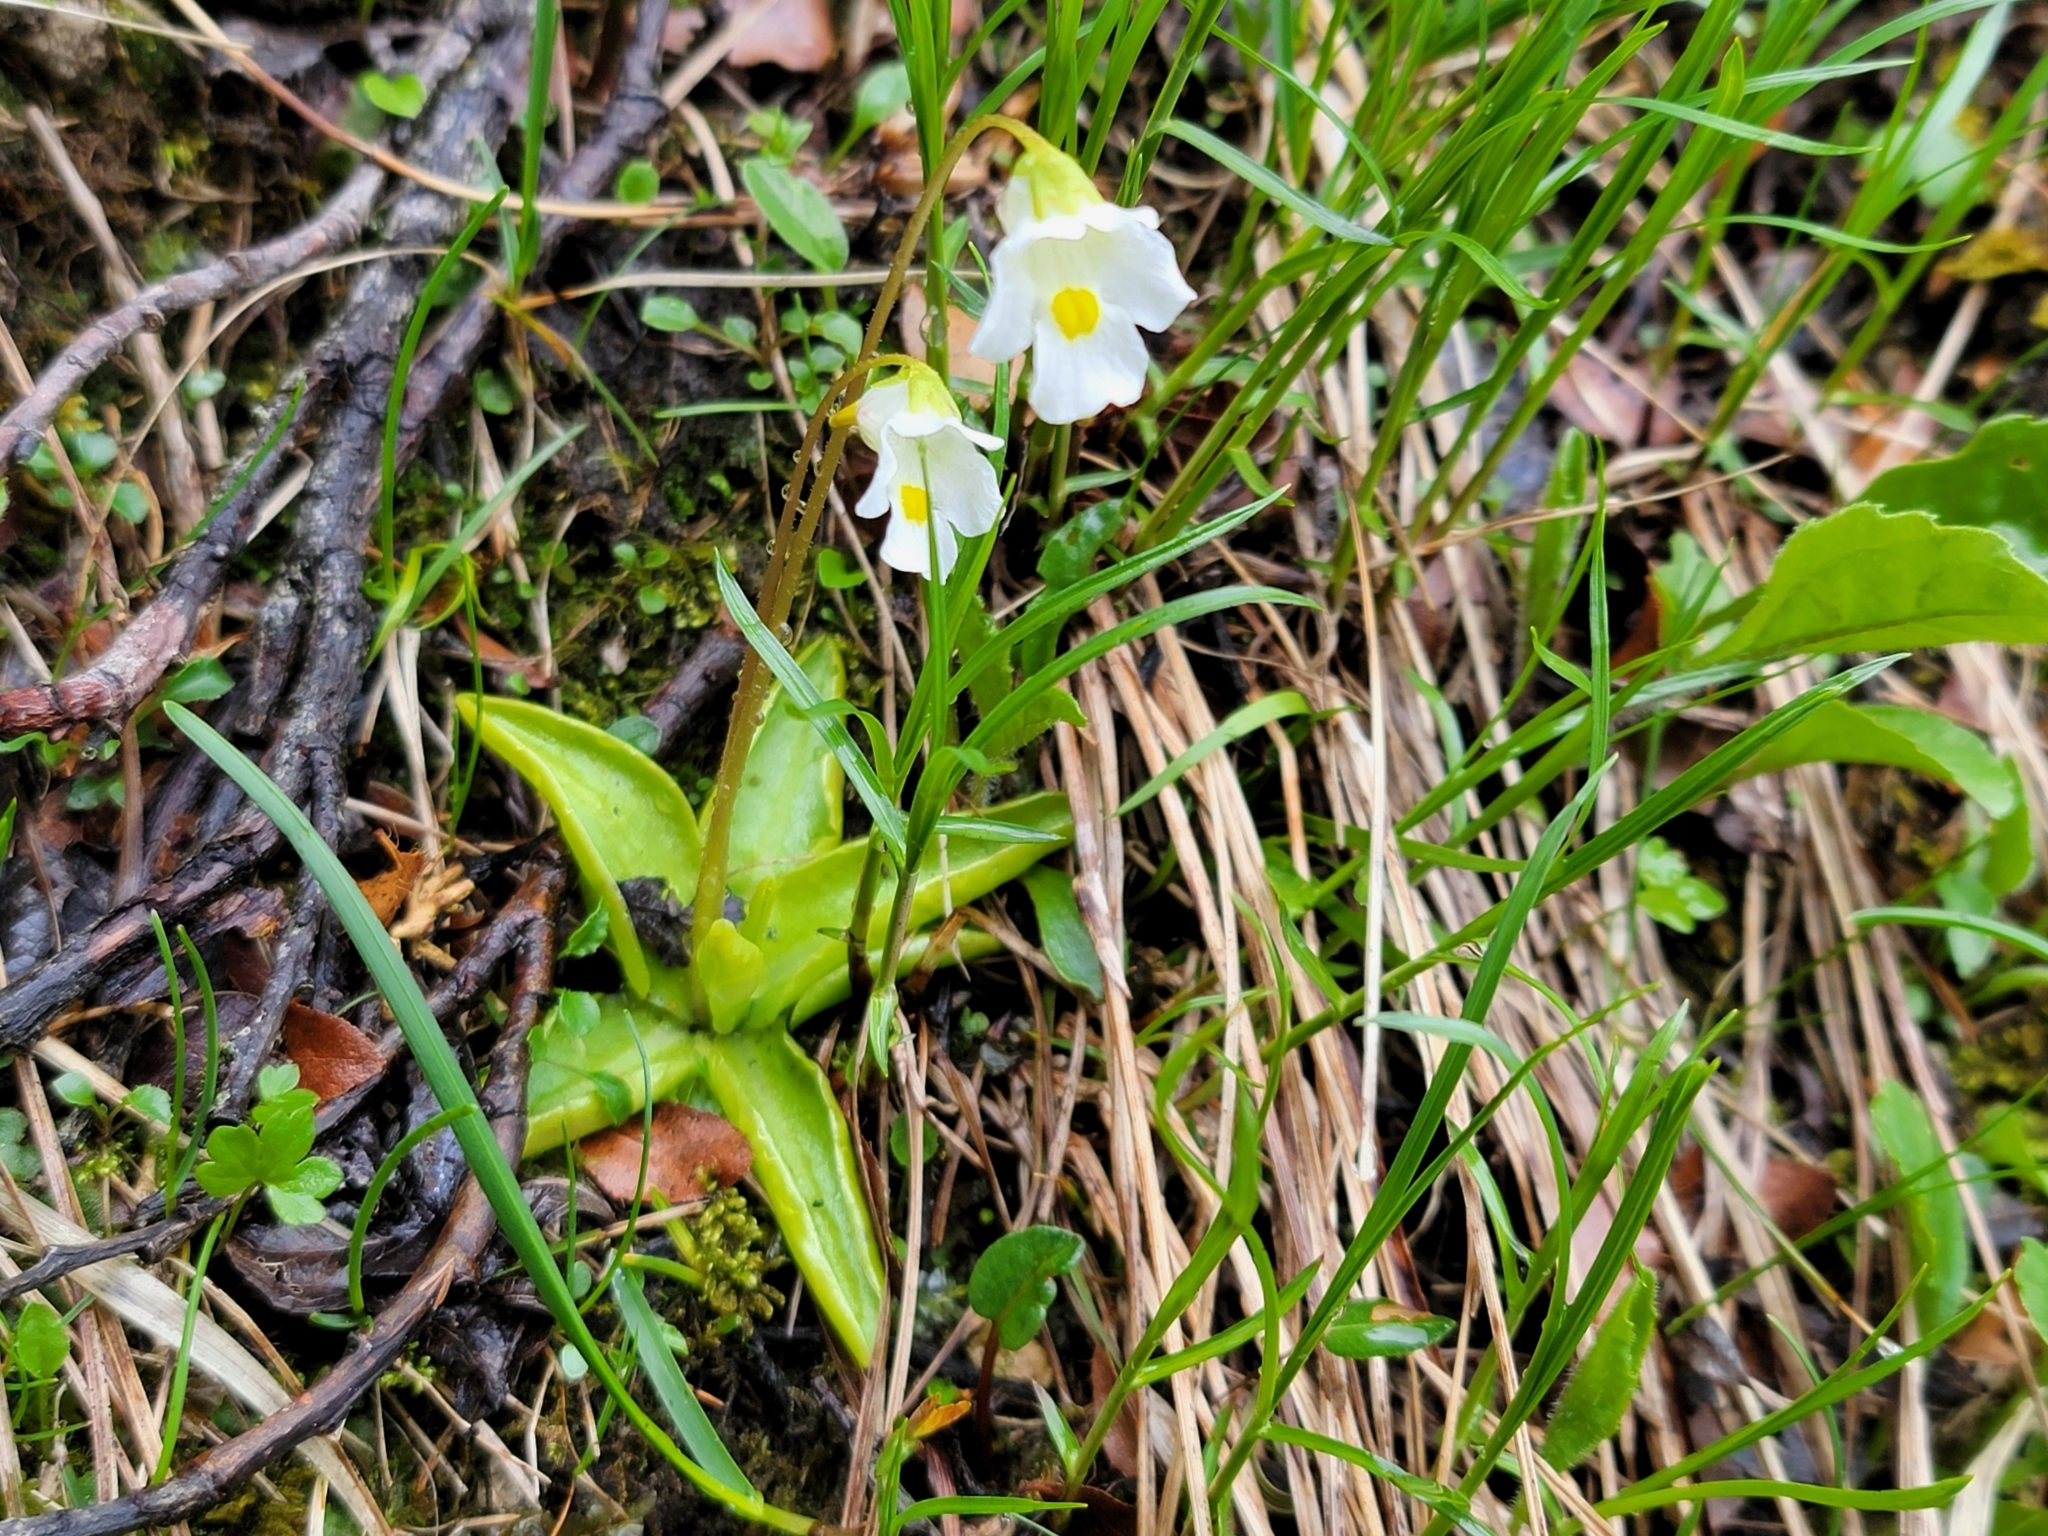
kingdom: Plantae
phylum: Tracheophyta
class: Magnoliopsida
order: Lamiales
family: Lentibulariaceae
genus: Pinguicula
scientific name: Pinguicula alpina
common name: Alpine butterwort
